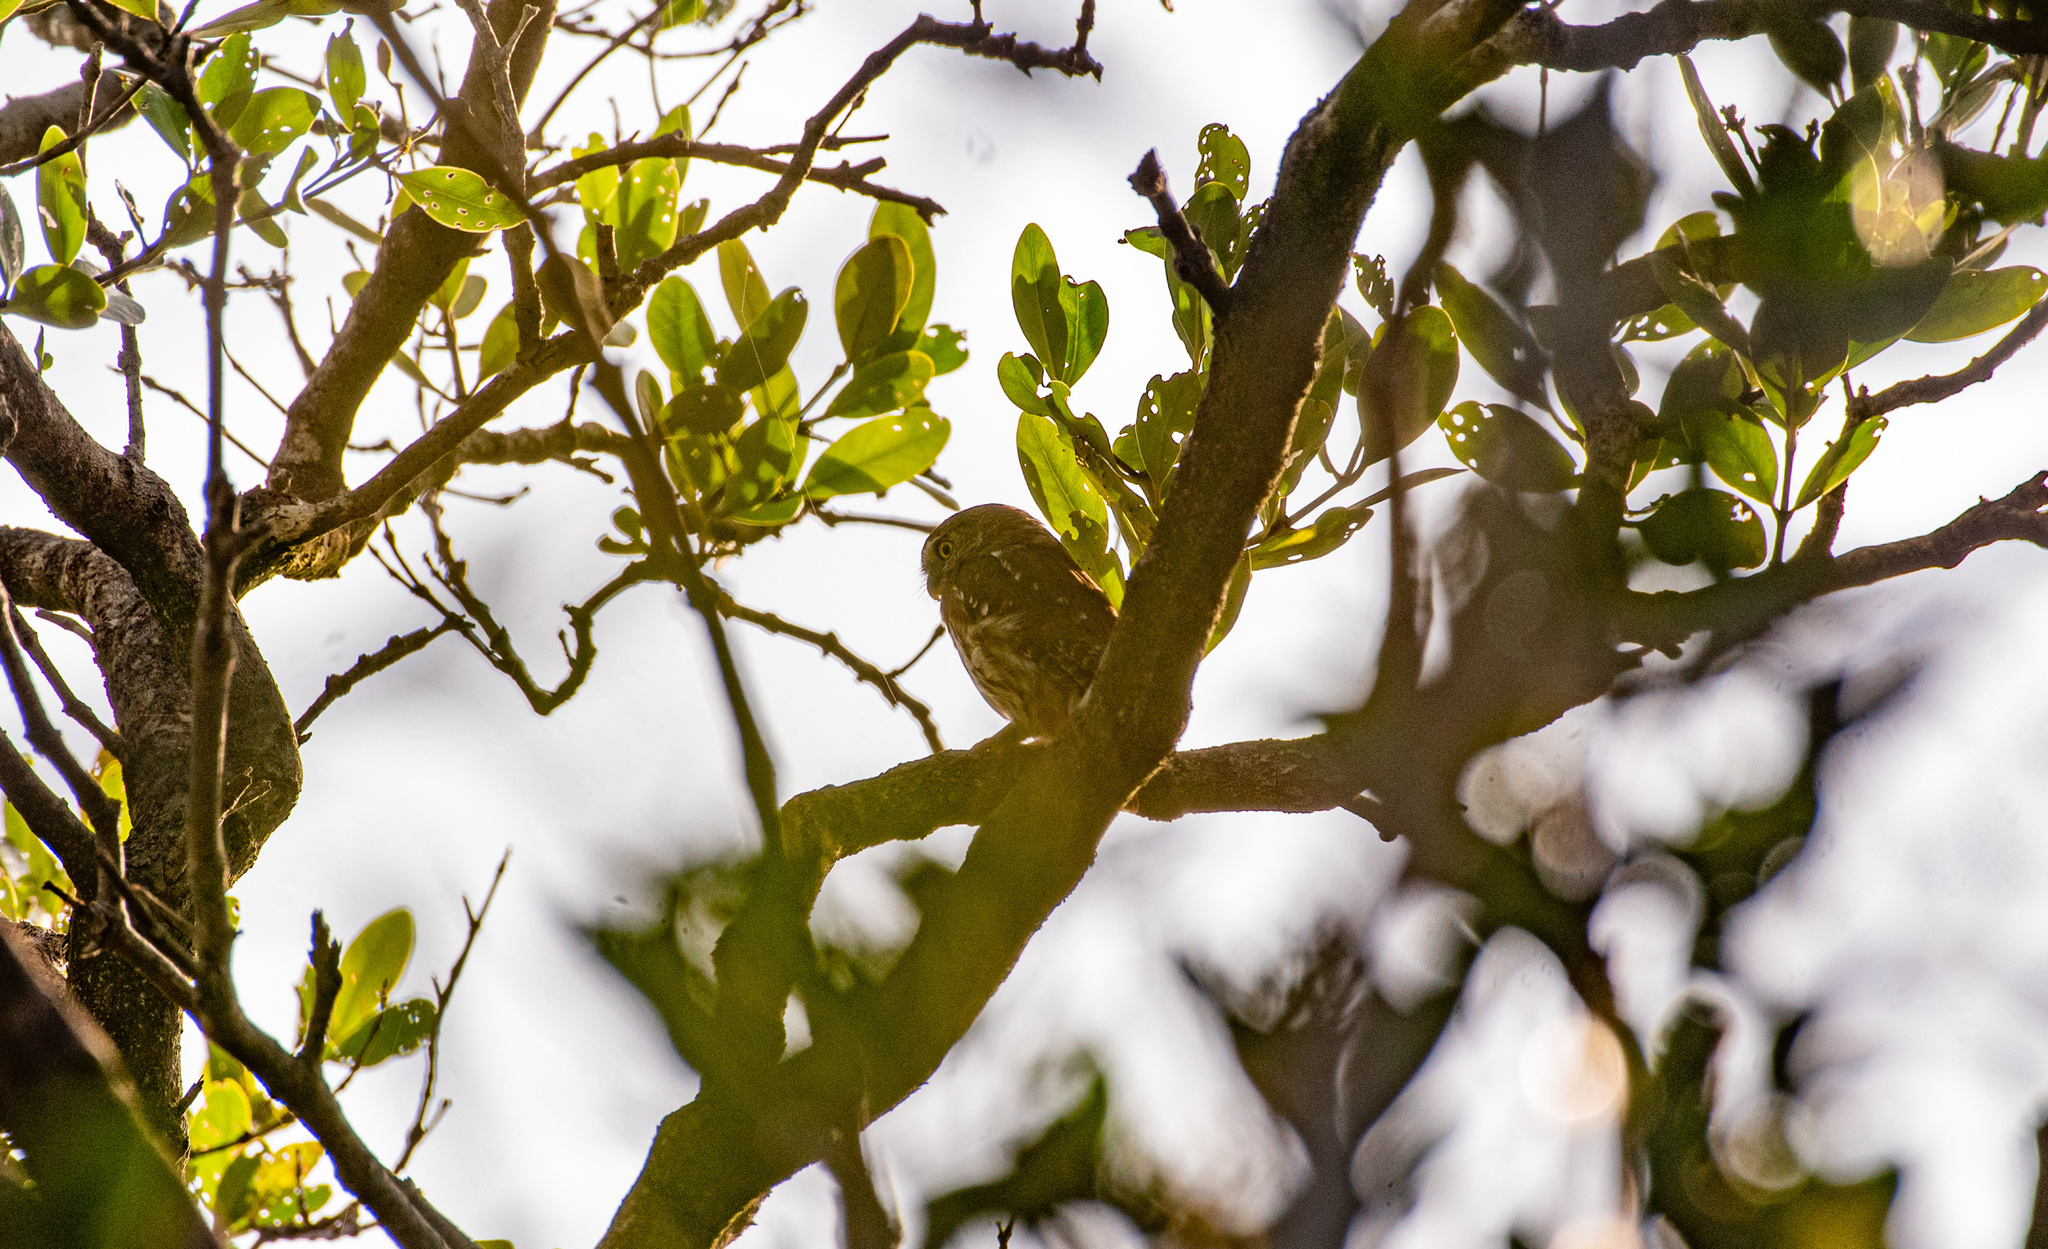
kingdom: Animalia
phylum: Chordata
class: Aves
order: Strigiformes
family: Strigidae
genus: Glaucidium
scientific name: Glaucidium brasilianum
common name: Ferruginous pygmy-owl
